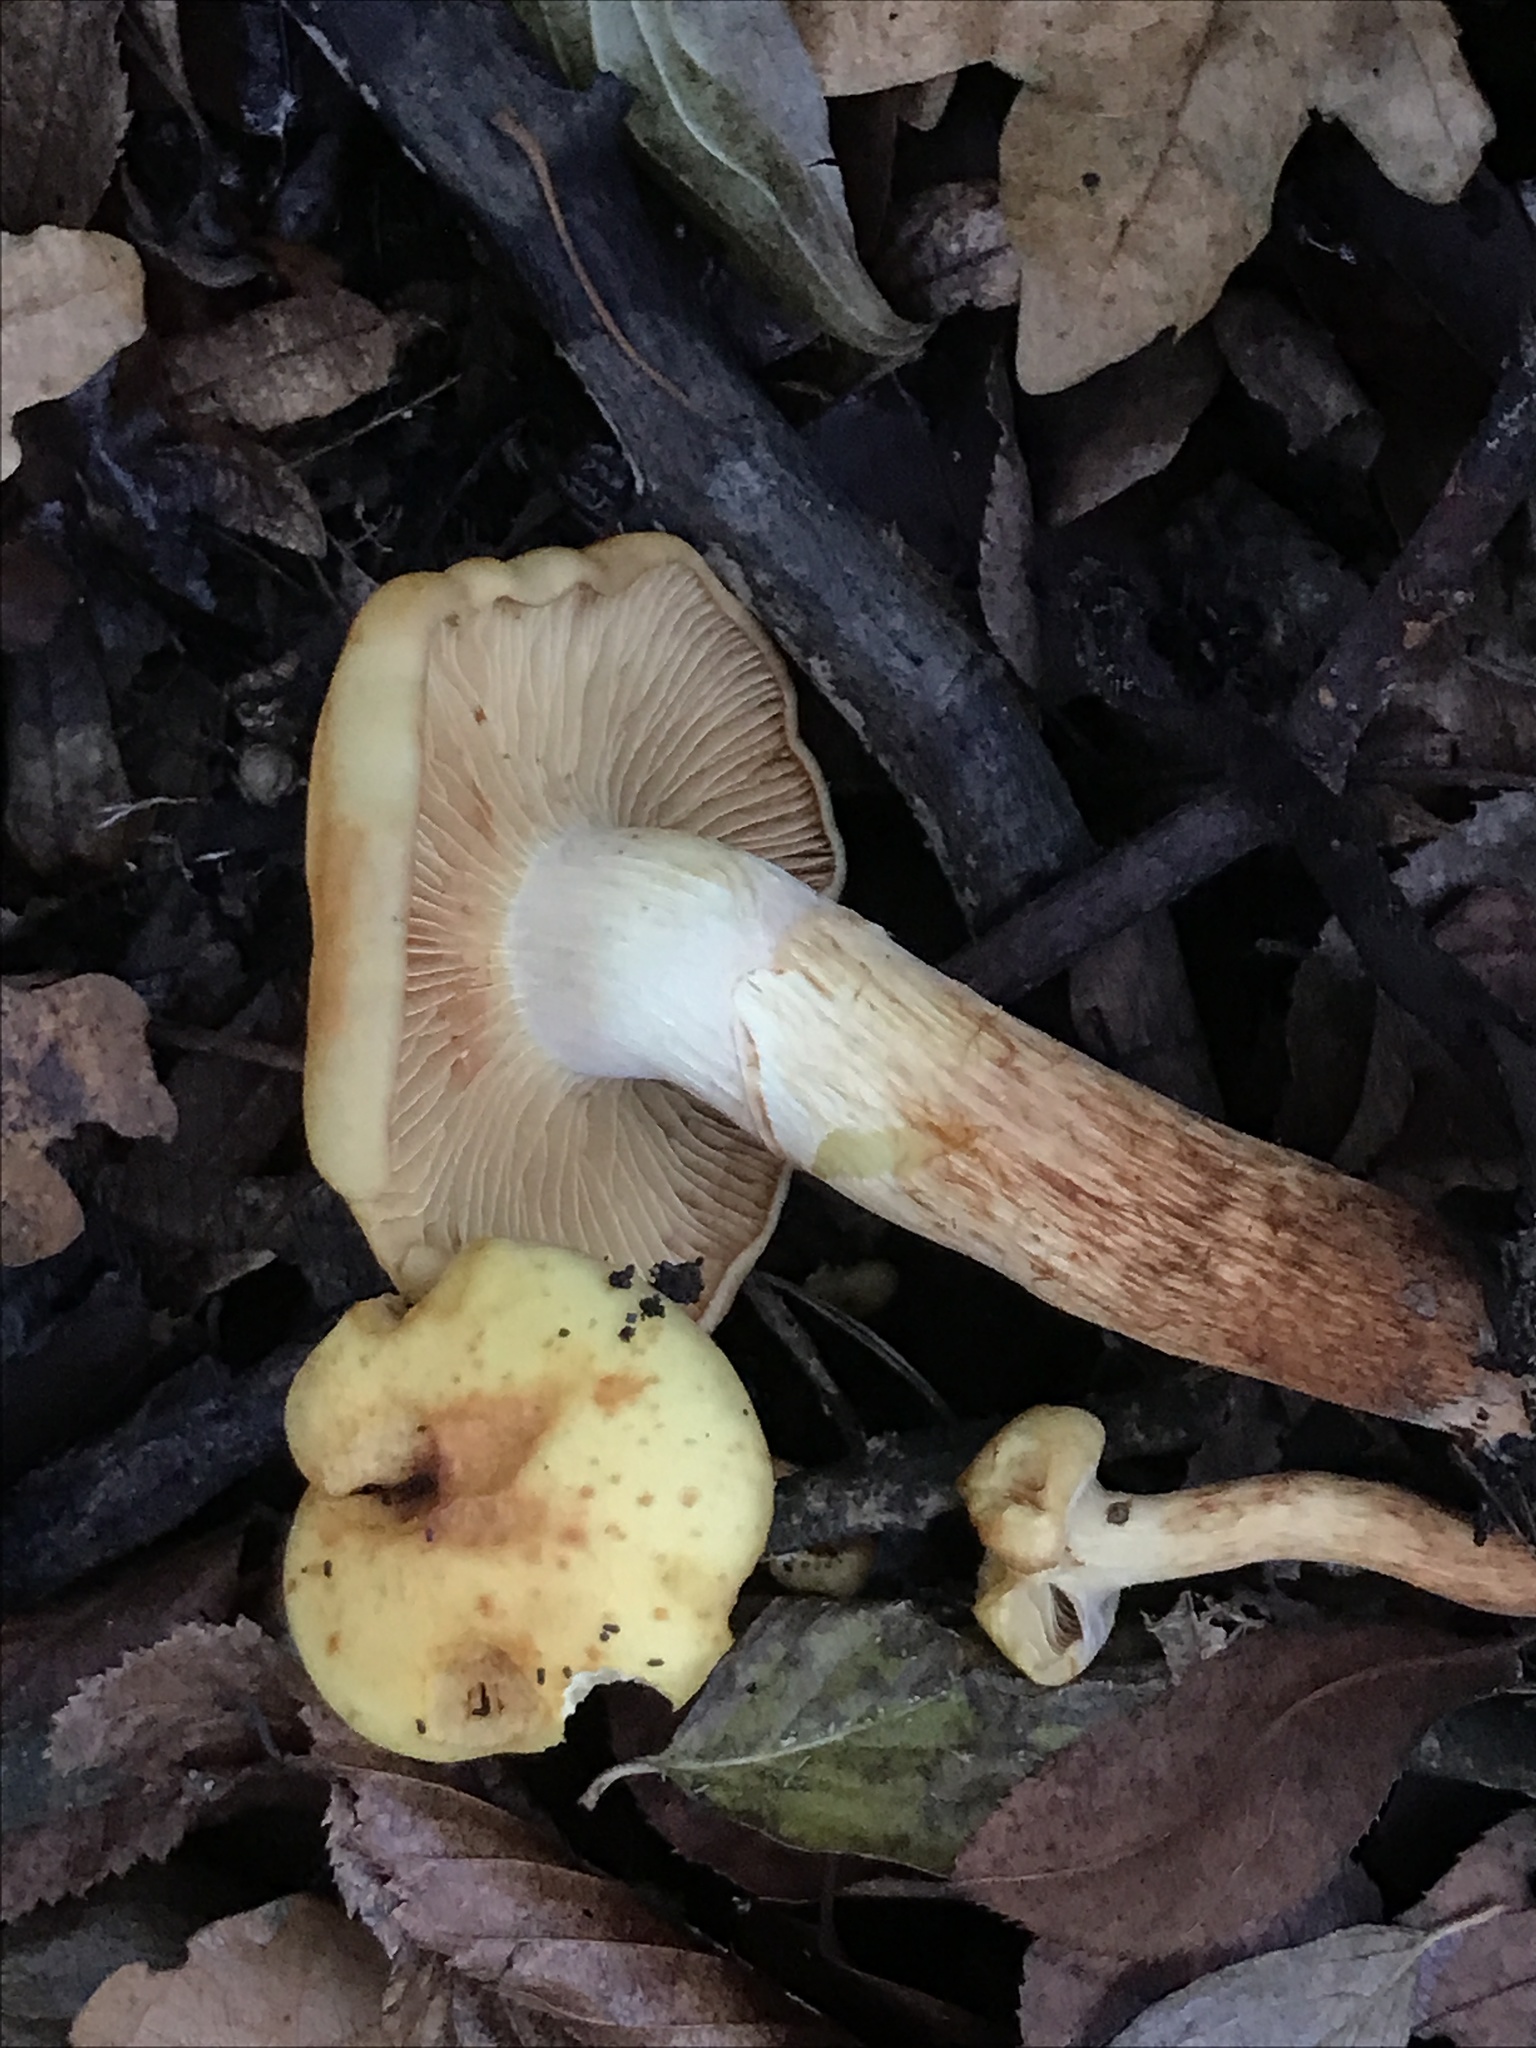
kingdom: Fungi
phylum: Basidiomycota
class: Agaricomycetes
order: Agaricales
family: Hymenogastraceae
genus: Flammula
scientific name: Flammula alnicola
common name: Alder scalycap
